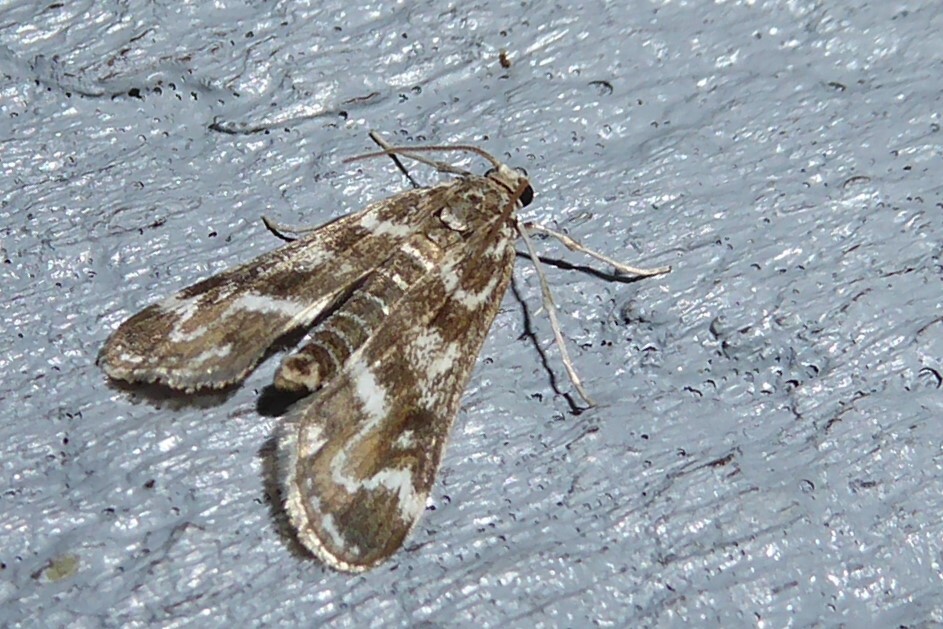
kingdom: Animalia
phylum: Arthropoda
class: Insecta
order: Lepidoptera
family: Crambidae
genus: Hygraula
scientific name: Hygraula nitens
